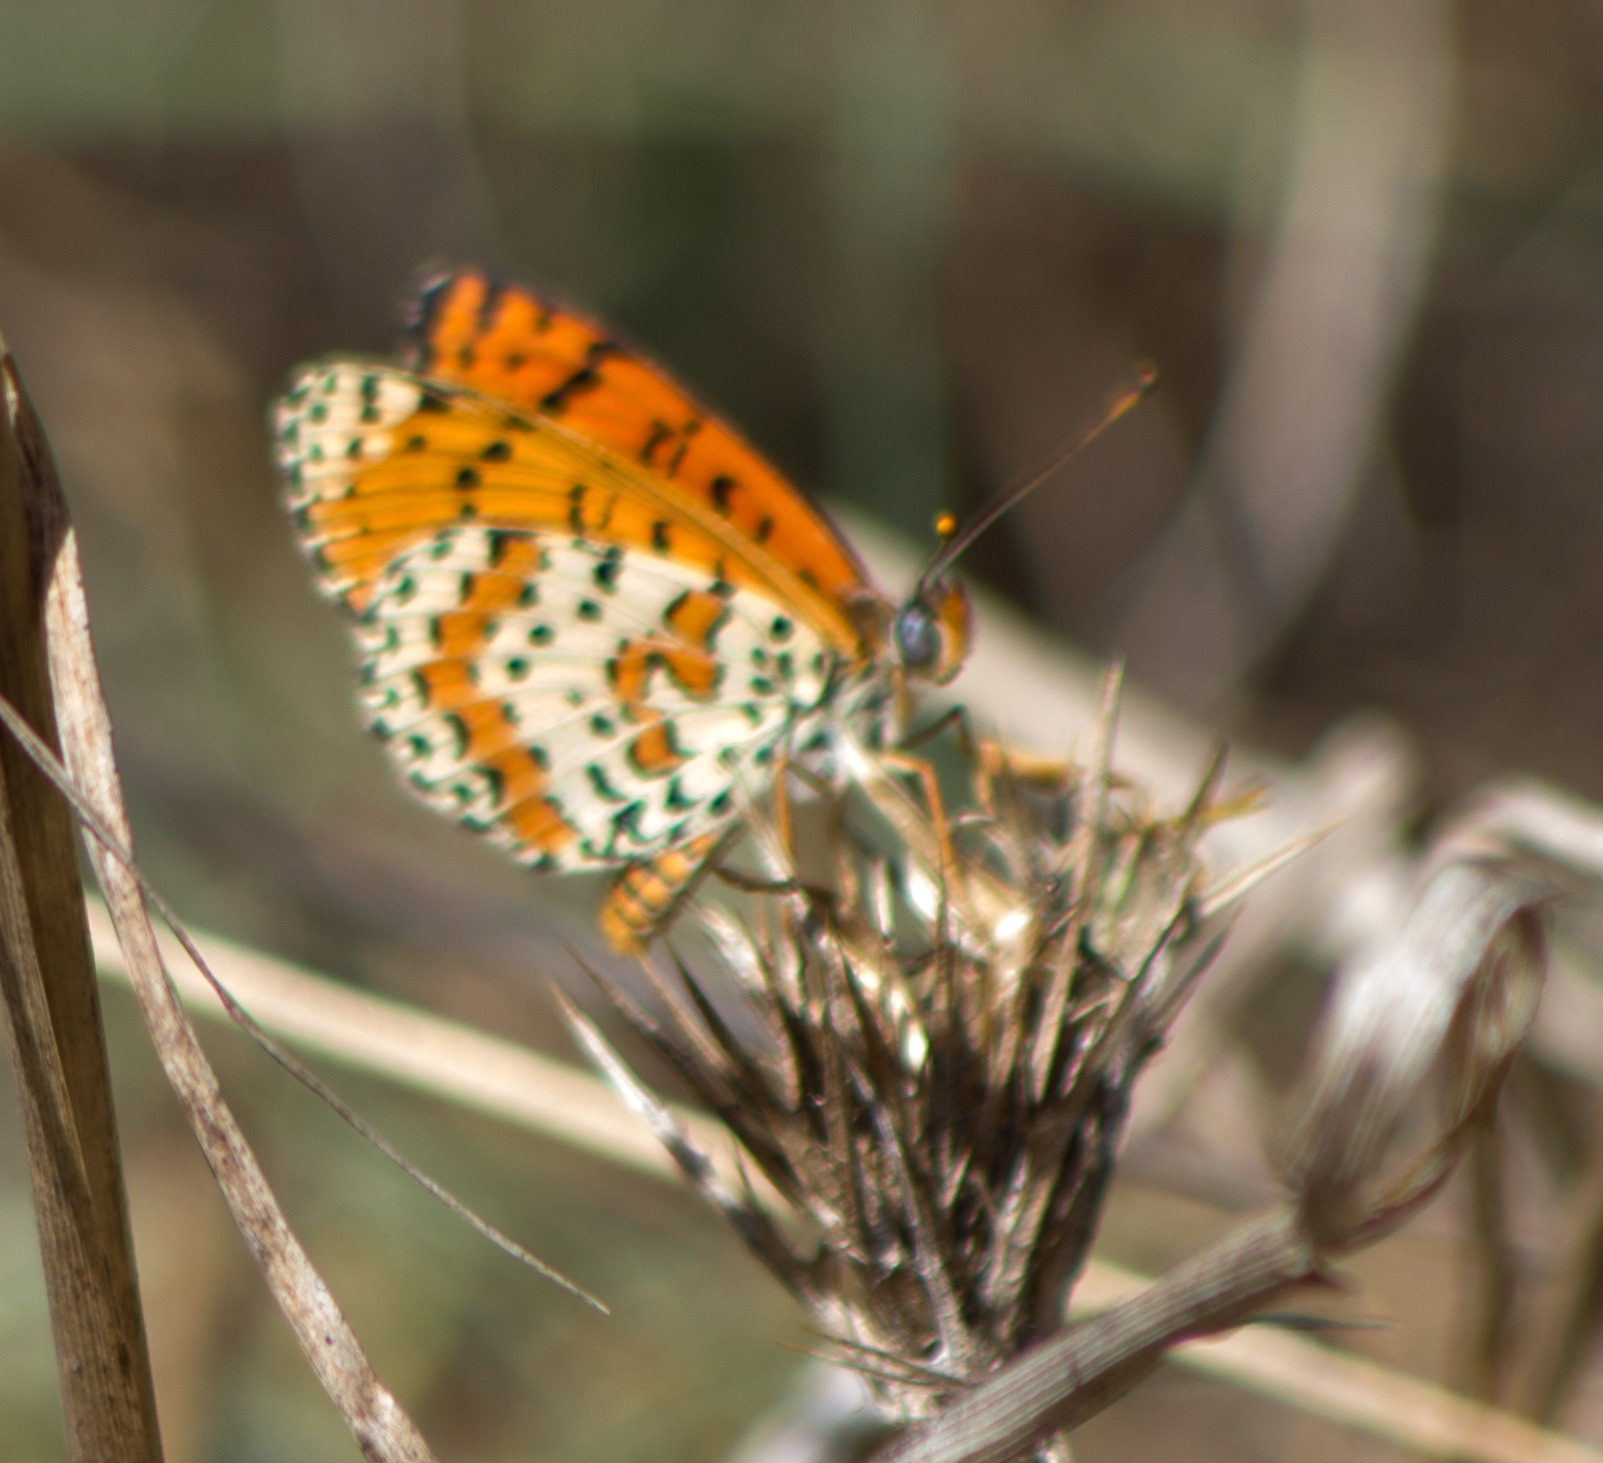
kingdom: Animalia
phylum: Arthropoda
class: Insecta
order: Lepidoptera
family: Nymphalidae
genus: Melitaea
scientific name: Melitaea didyma
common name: Spotted fritillary
